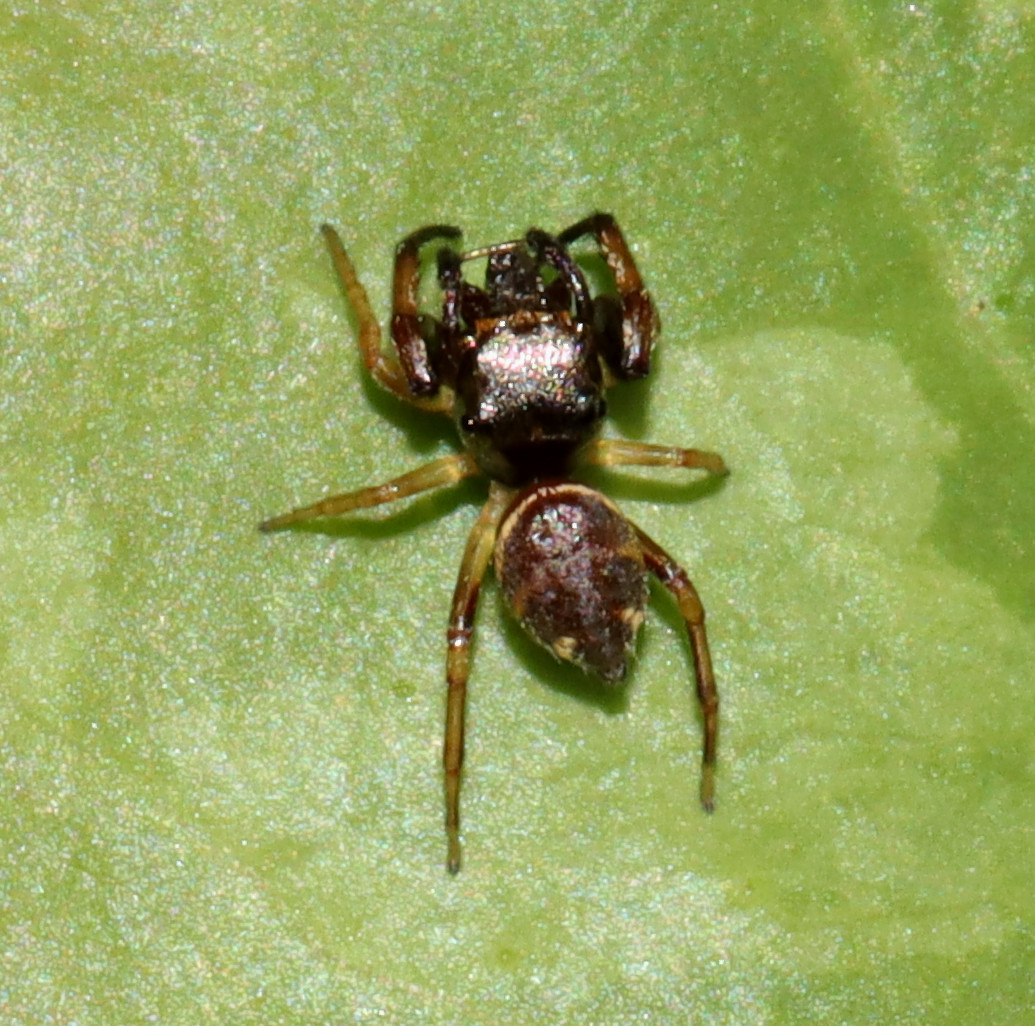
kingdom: Animalia
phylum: Arthropoda
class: Arachnida
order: Araneae
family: Salticidae
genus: Zygoballus
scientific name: Zygoballus rufipes
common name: Jumping spiders
